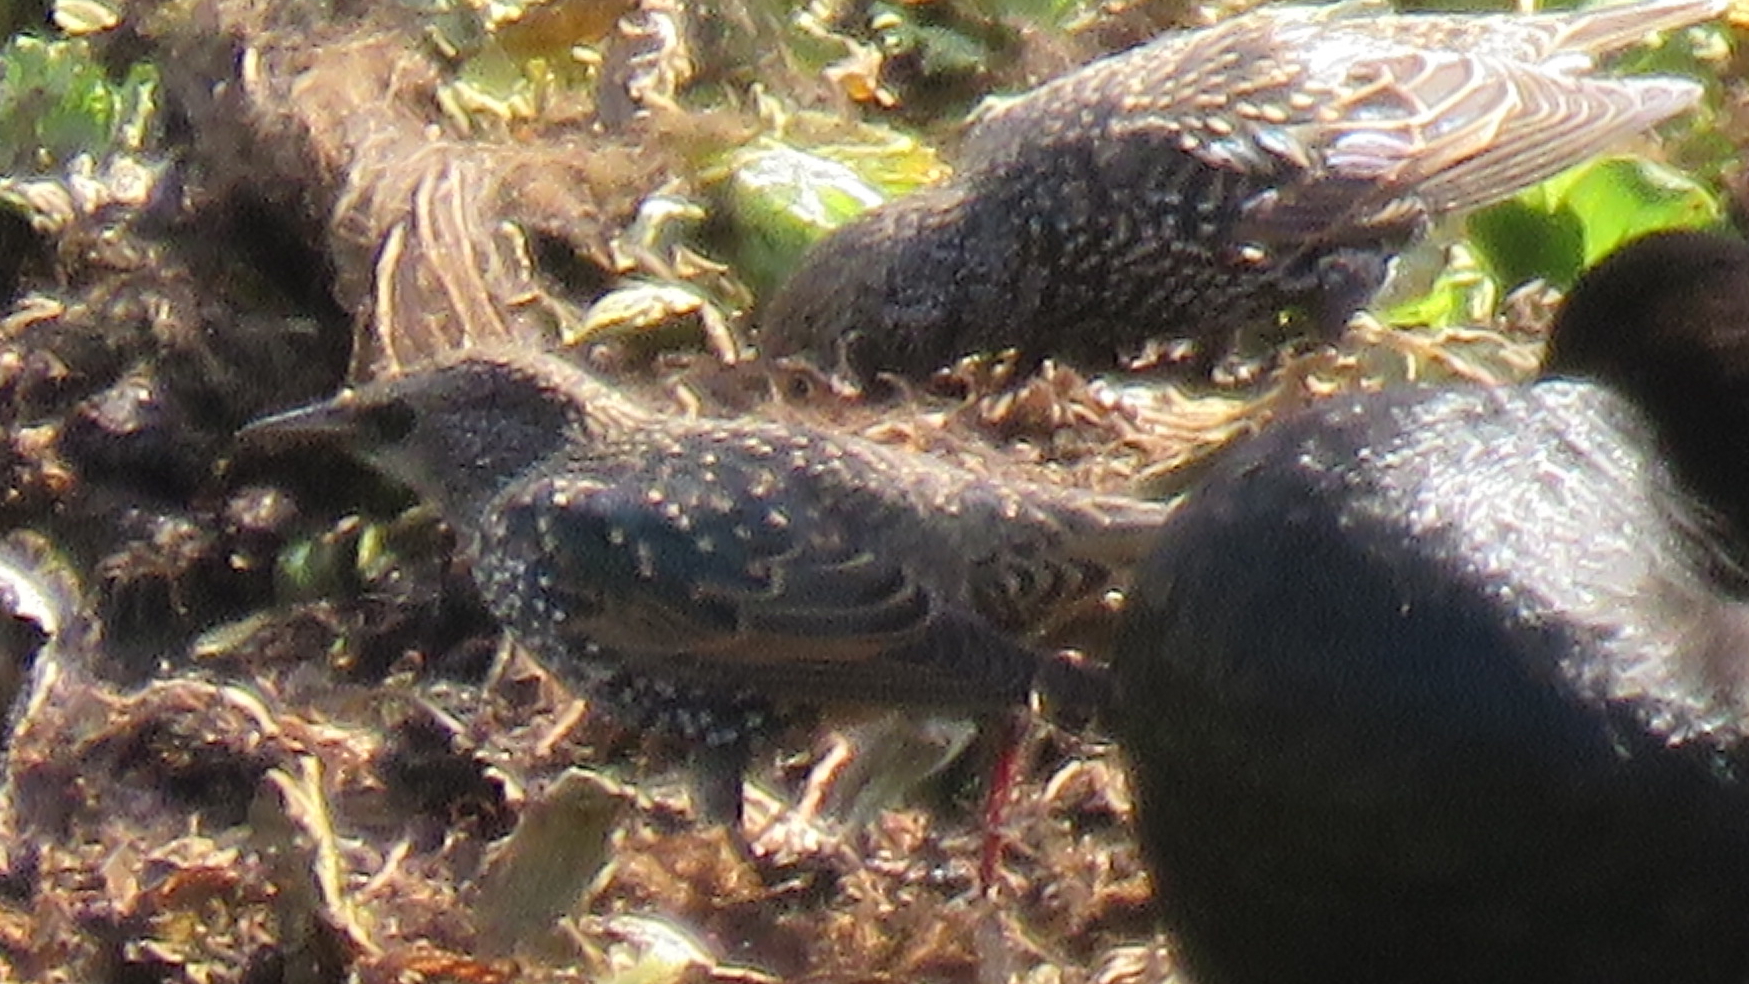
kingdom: Animalia
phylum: Chordata
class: Aves
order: Passeriformes
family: Sturnidae
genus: Sturnus
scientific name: Sturnus vulgaris
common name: Common starling
